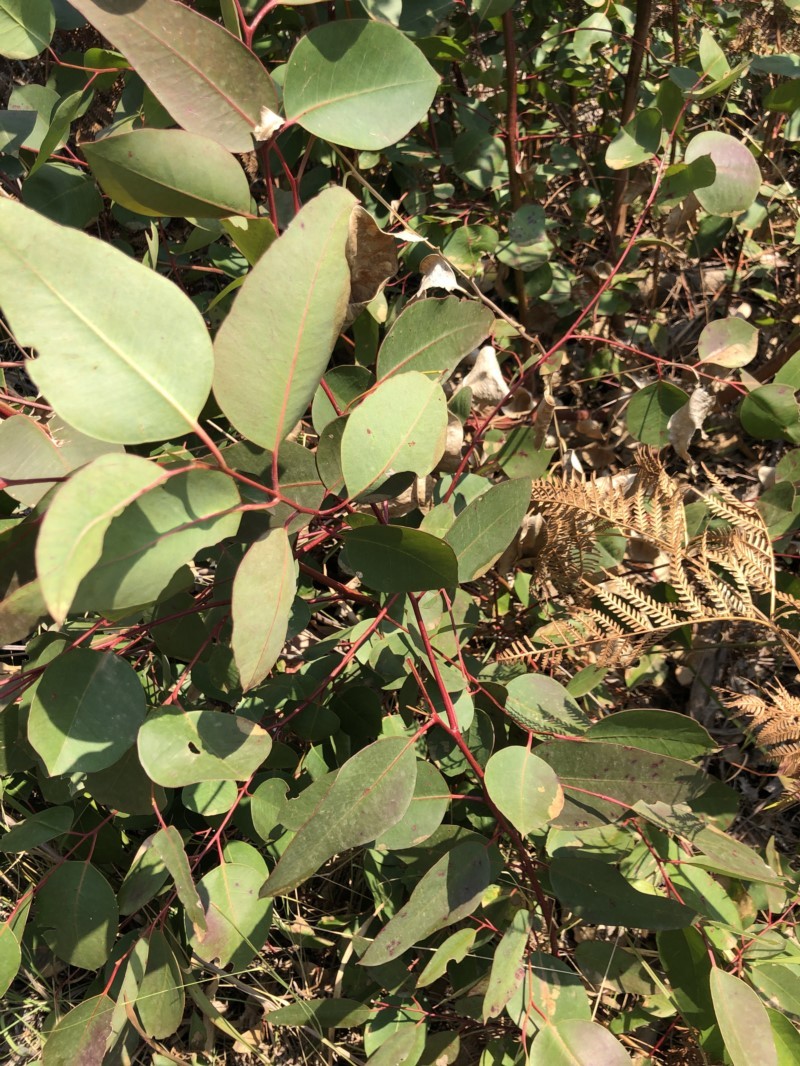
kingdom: Plantae
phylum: Tracheophyta
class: Magnoliopsida
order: Myrtales
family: Myrtaceae
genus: Eucalyptus
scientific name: Eucalyptus
